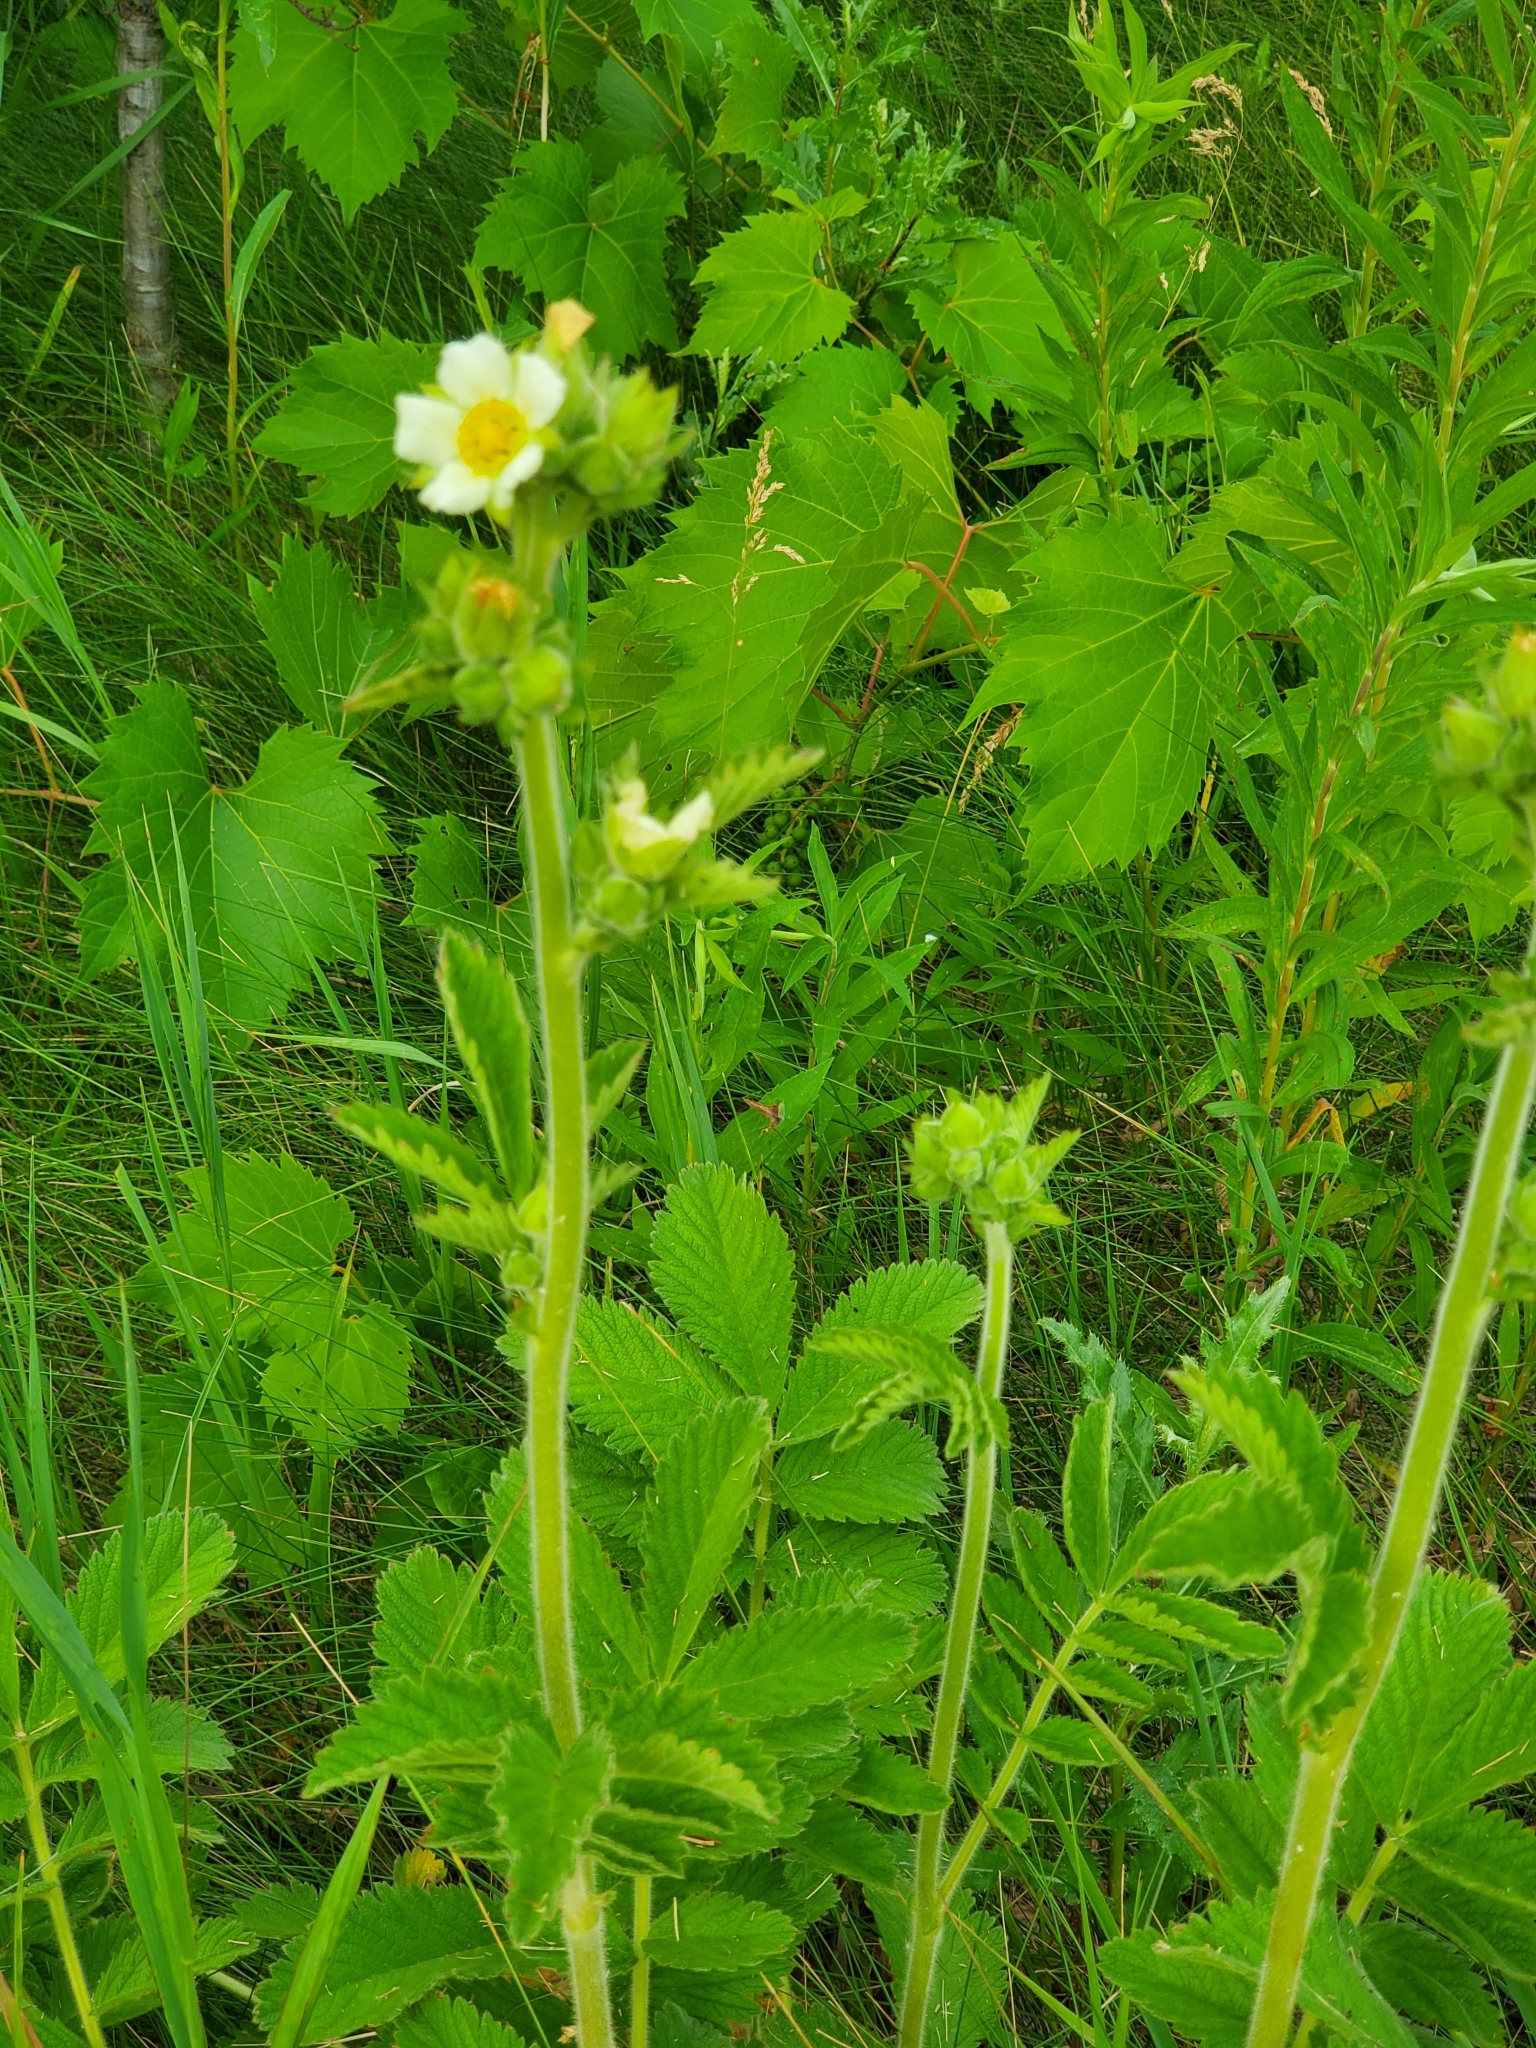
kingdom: Plantae
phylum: Tracheophyta
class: Magnoliopsida
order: Rosales
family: Rosaceae
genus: Drymocallis
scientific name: Drymocallis arguta
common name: Tall cinquefoil
